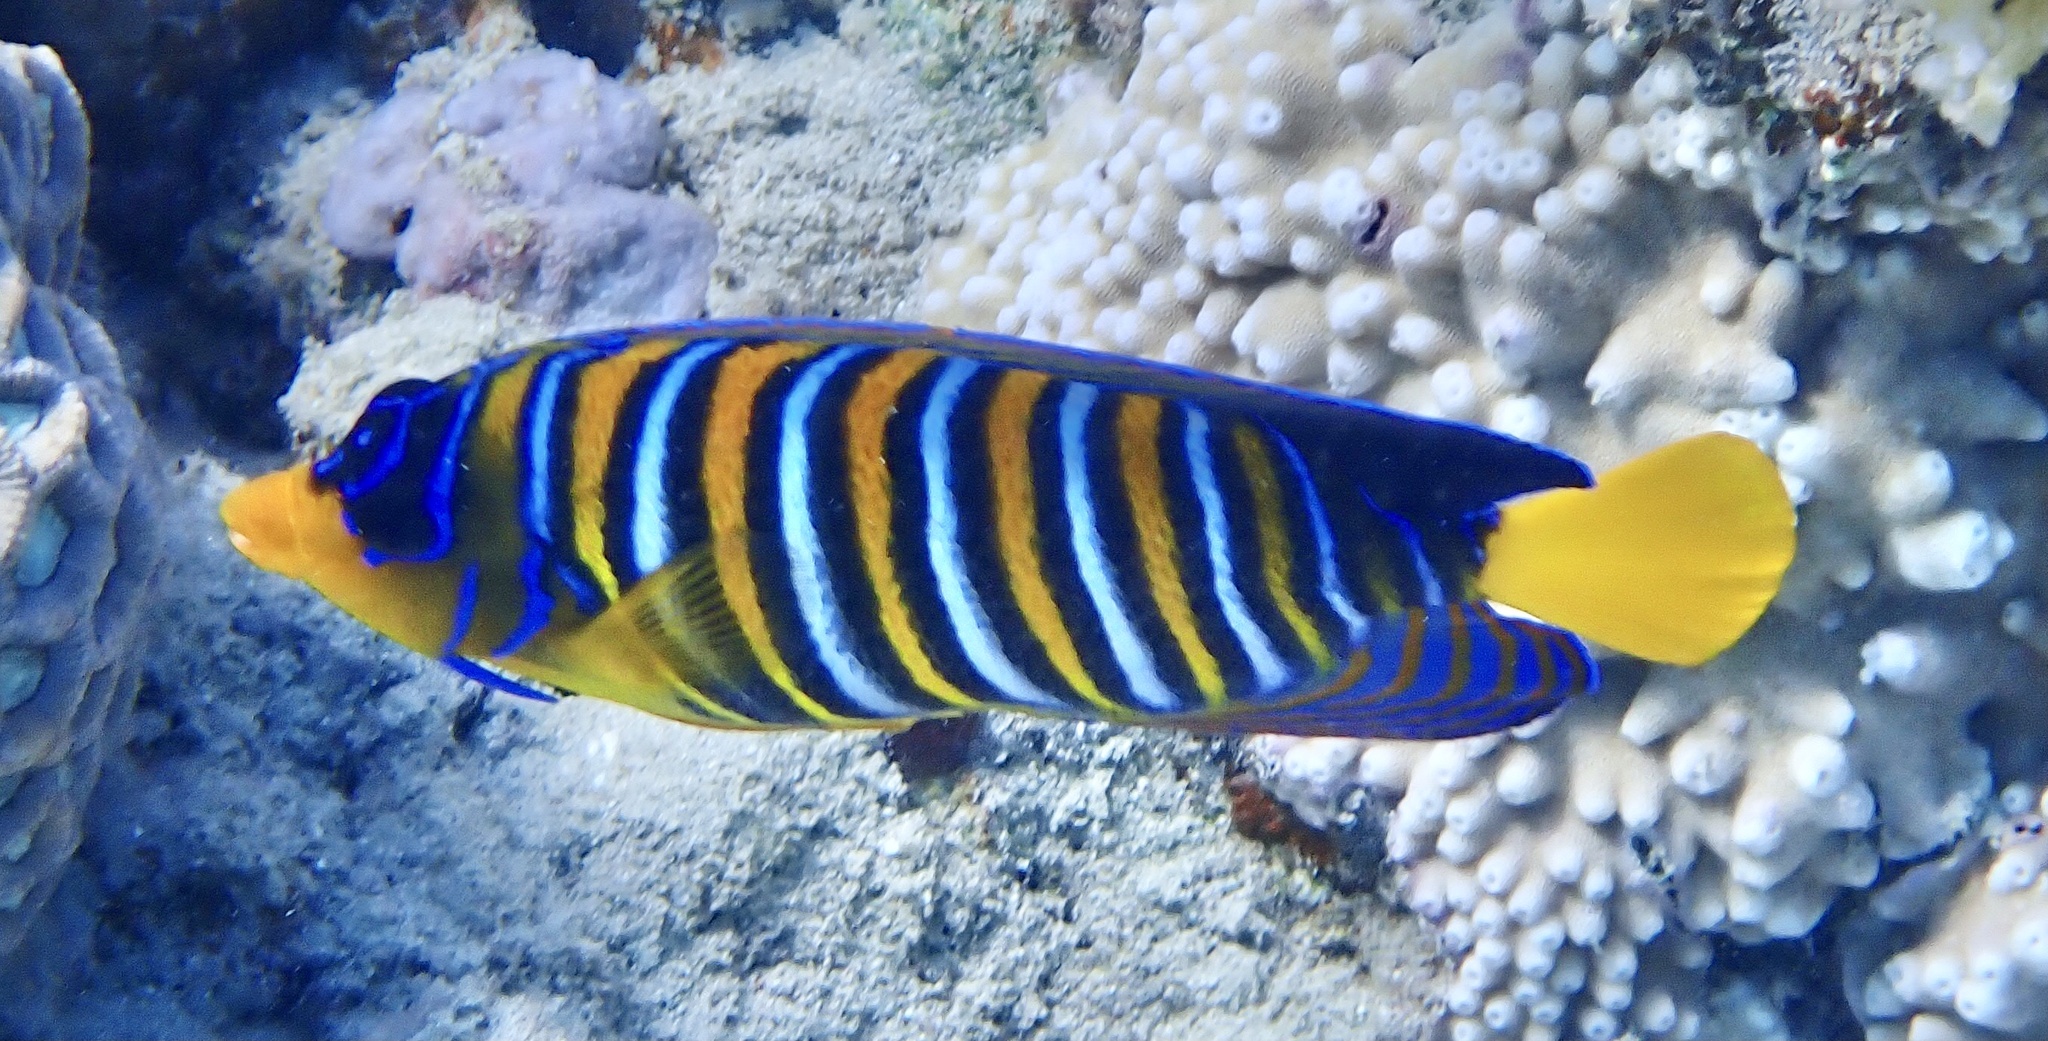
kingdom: Animalia
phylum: Chordata
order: Perciformes
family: Pomacanthidae
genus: Pygoplites
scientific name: Pygoplites diacanthus
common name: Regal angelfish
